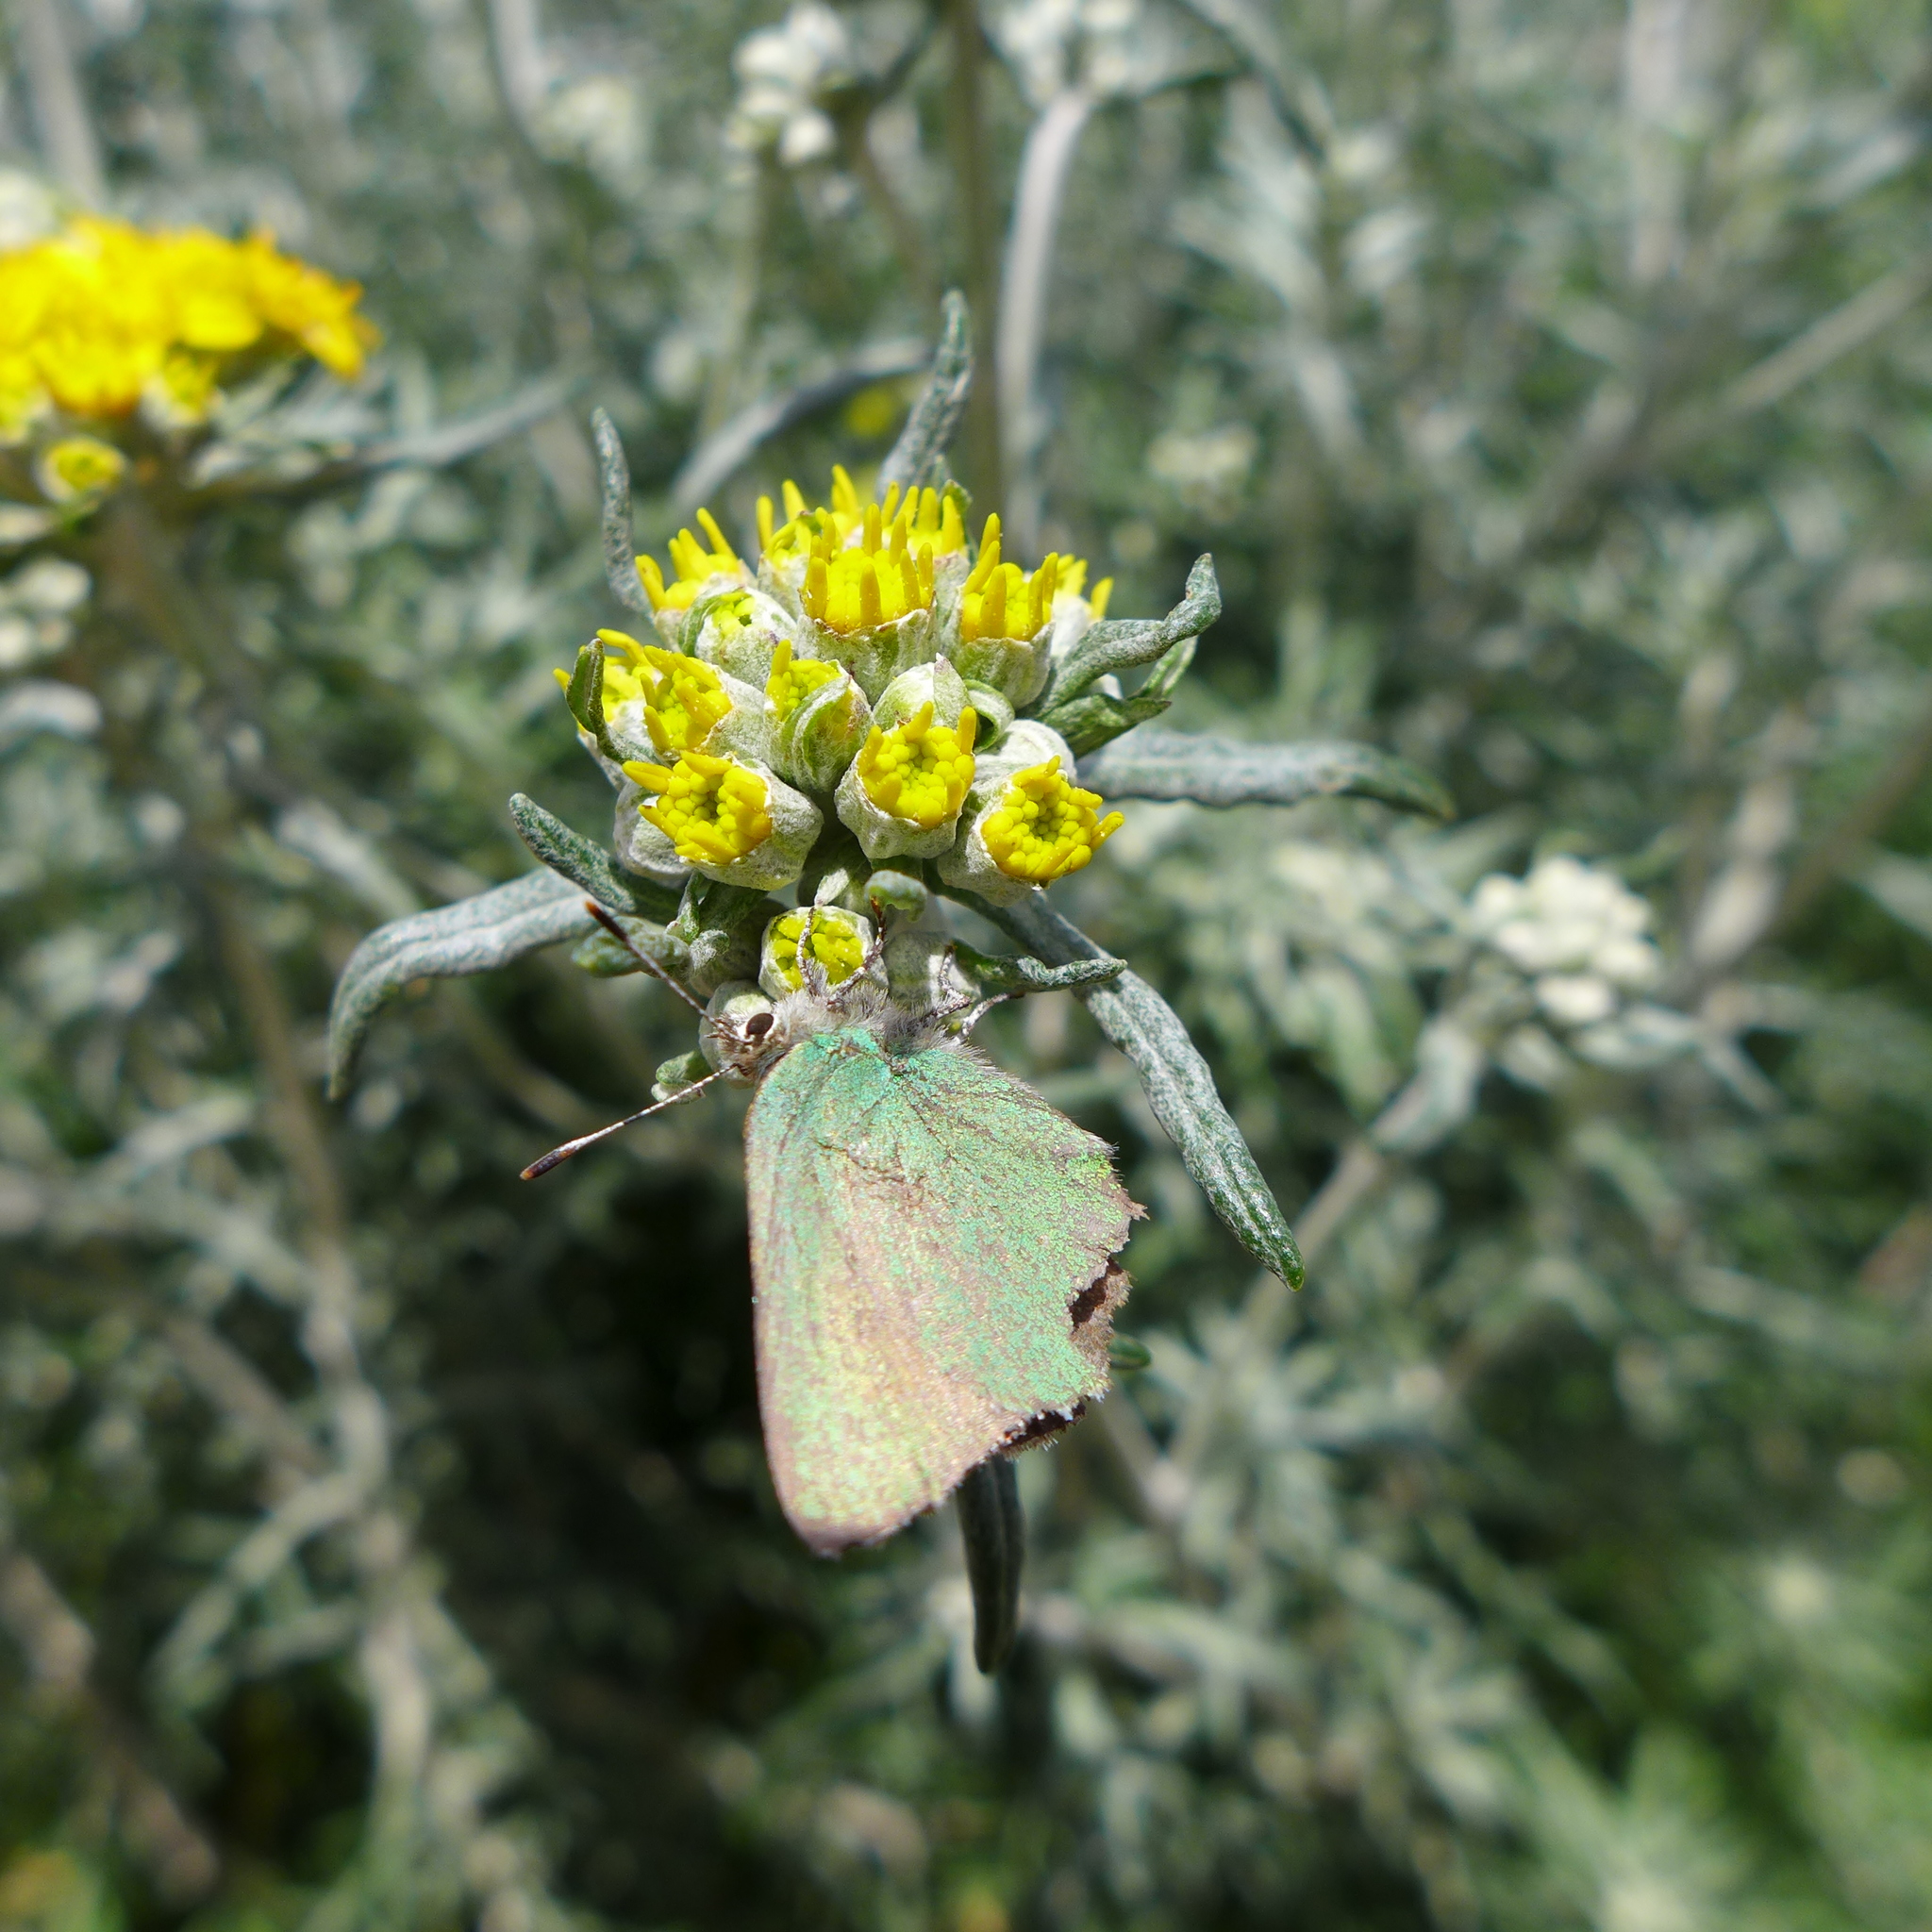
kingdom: Plantae
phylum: Tracheophyta
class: Magnoliopsida
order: Asterales
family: Asteraceae
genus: Eriophyllum
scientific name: Eriophyllum staechadifolium
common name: Lizardtail
